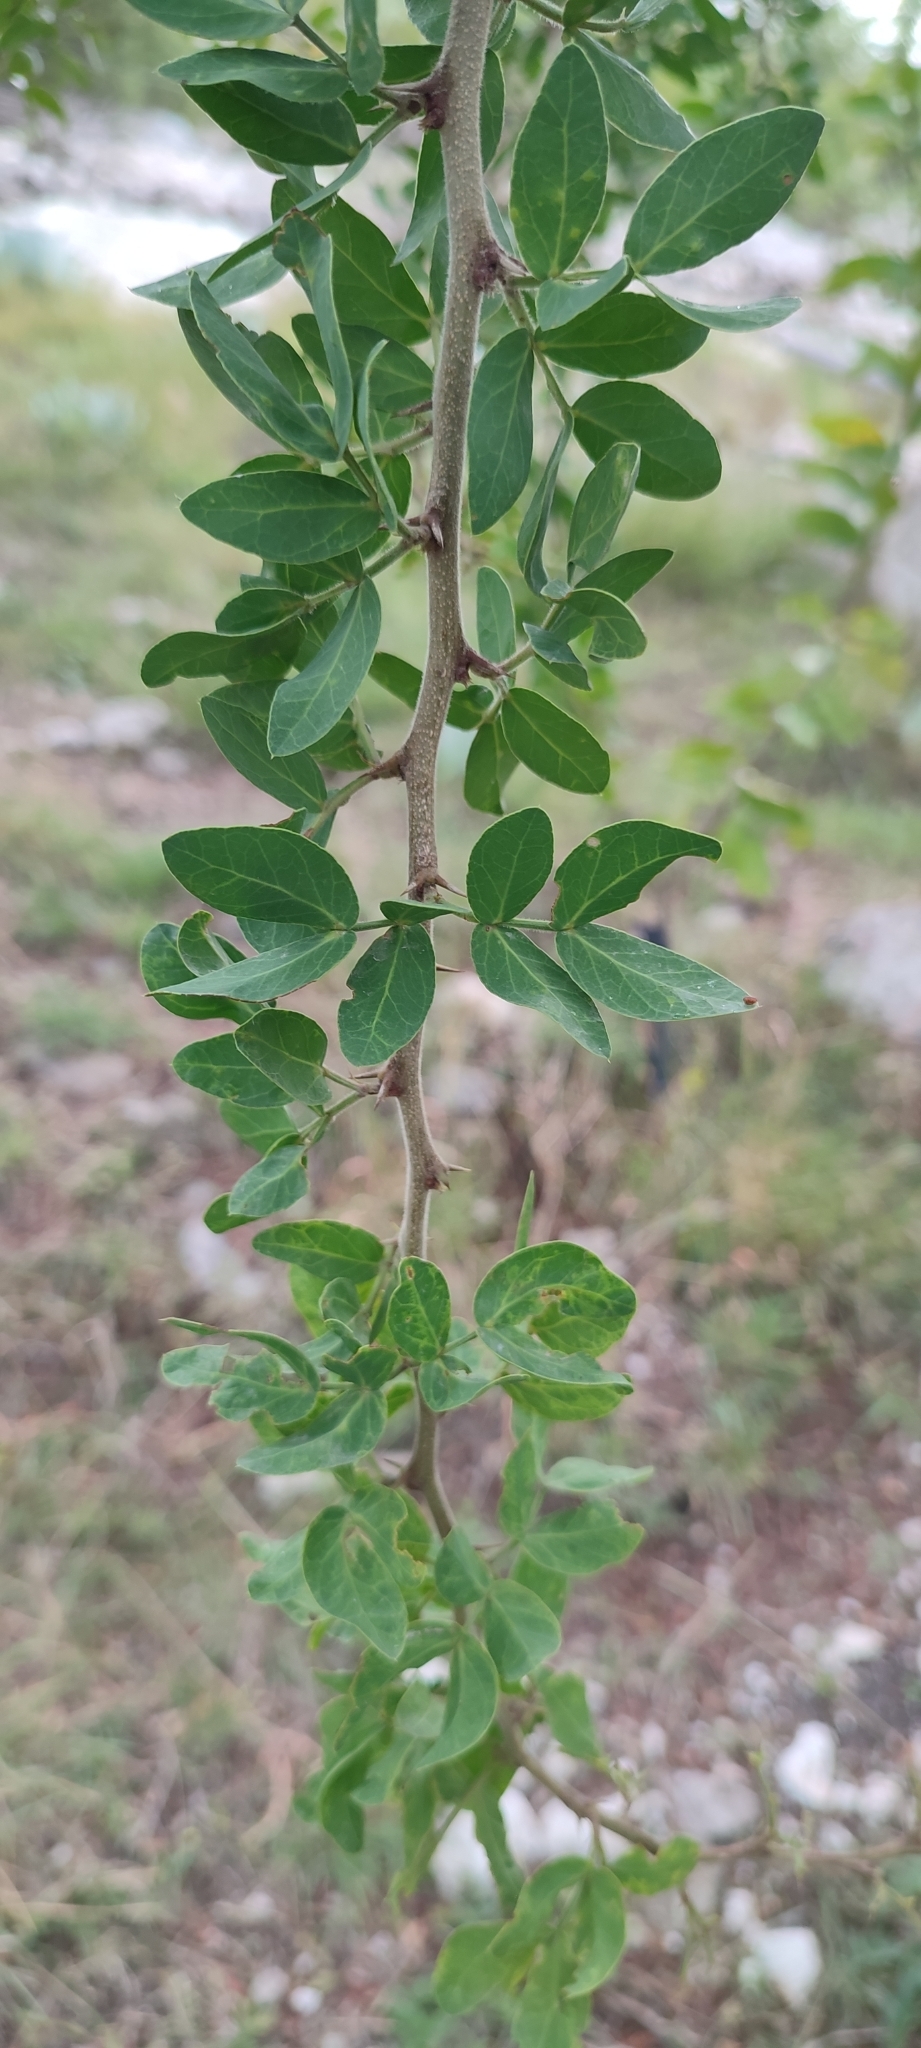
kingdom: Plantae
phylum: Tracheophyta
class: Magnoliopsida
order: Fabales
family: Fabaceae
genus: Vachellia
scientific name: Vachellia bilimekii
